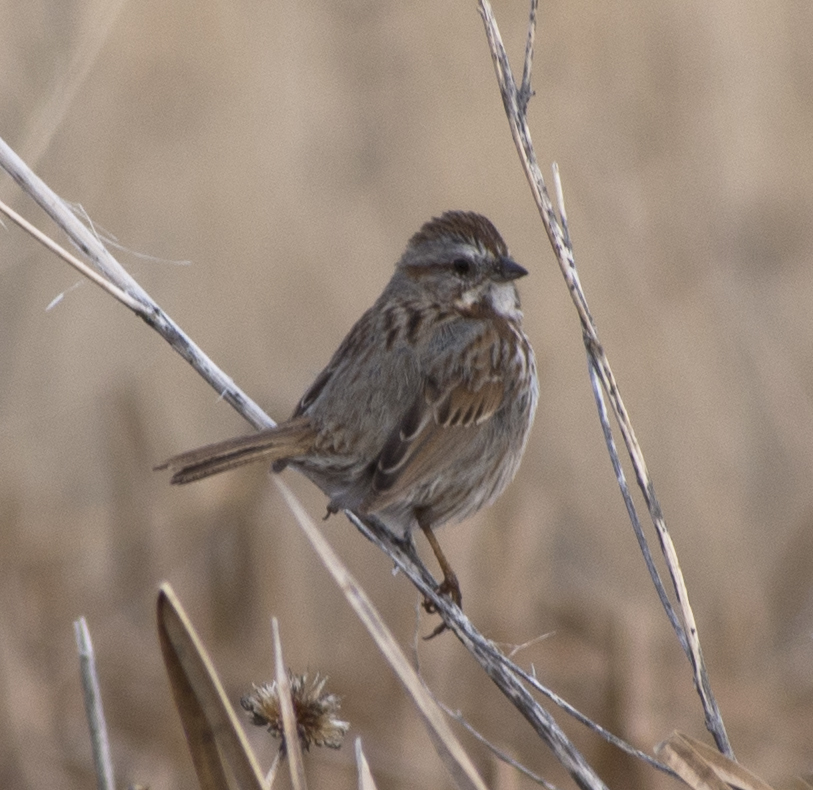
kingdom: Animalia
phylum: Chordata
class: Aves
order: Passeriformes
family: Passerellidae
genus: Melospiza
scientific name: Melospiza melodia
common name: Song sparrow
